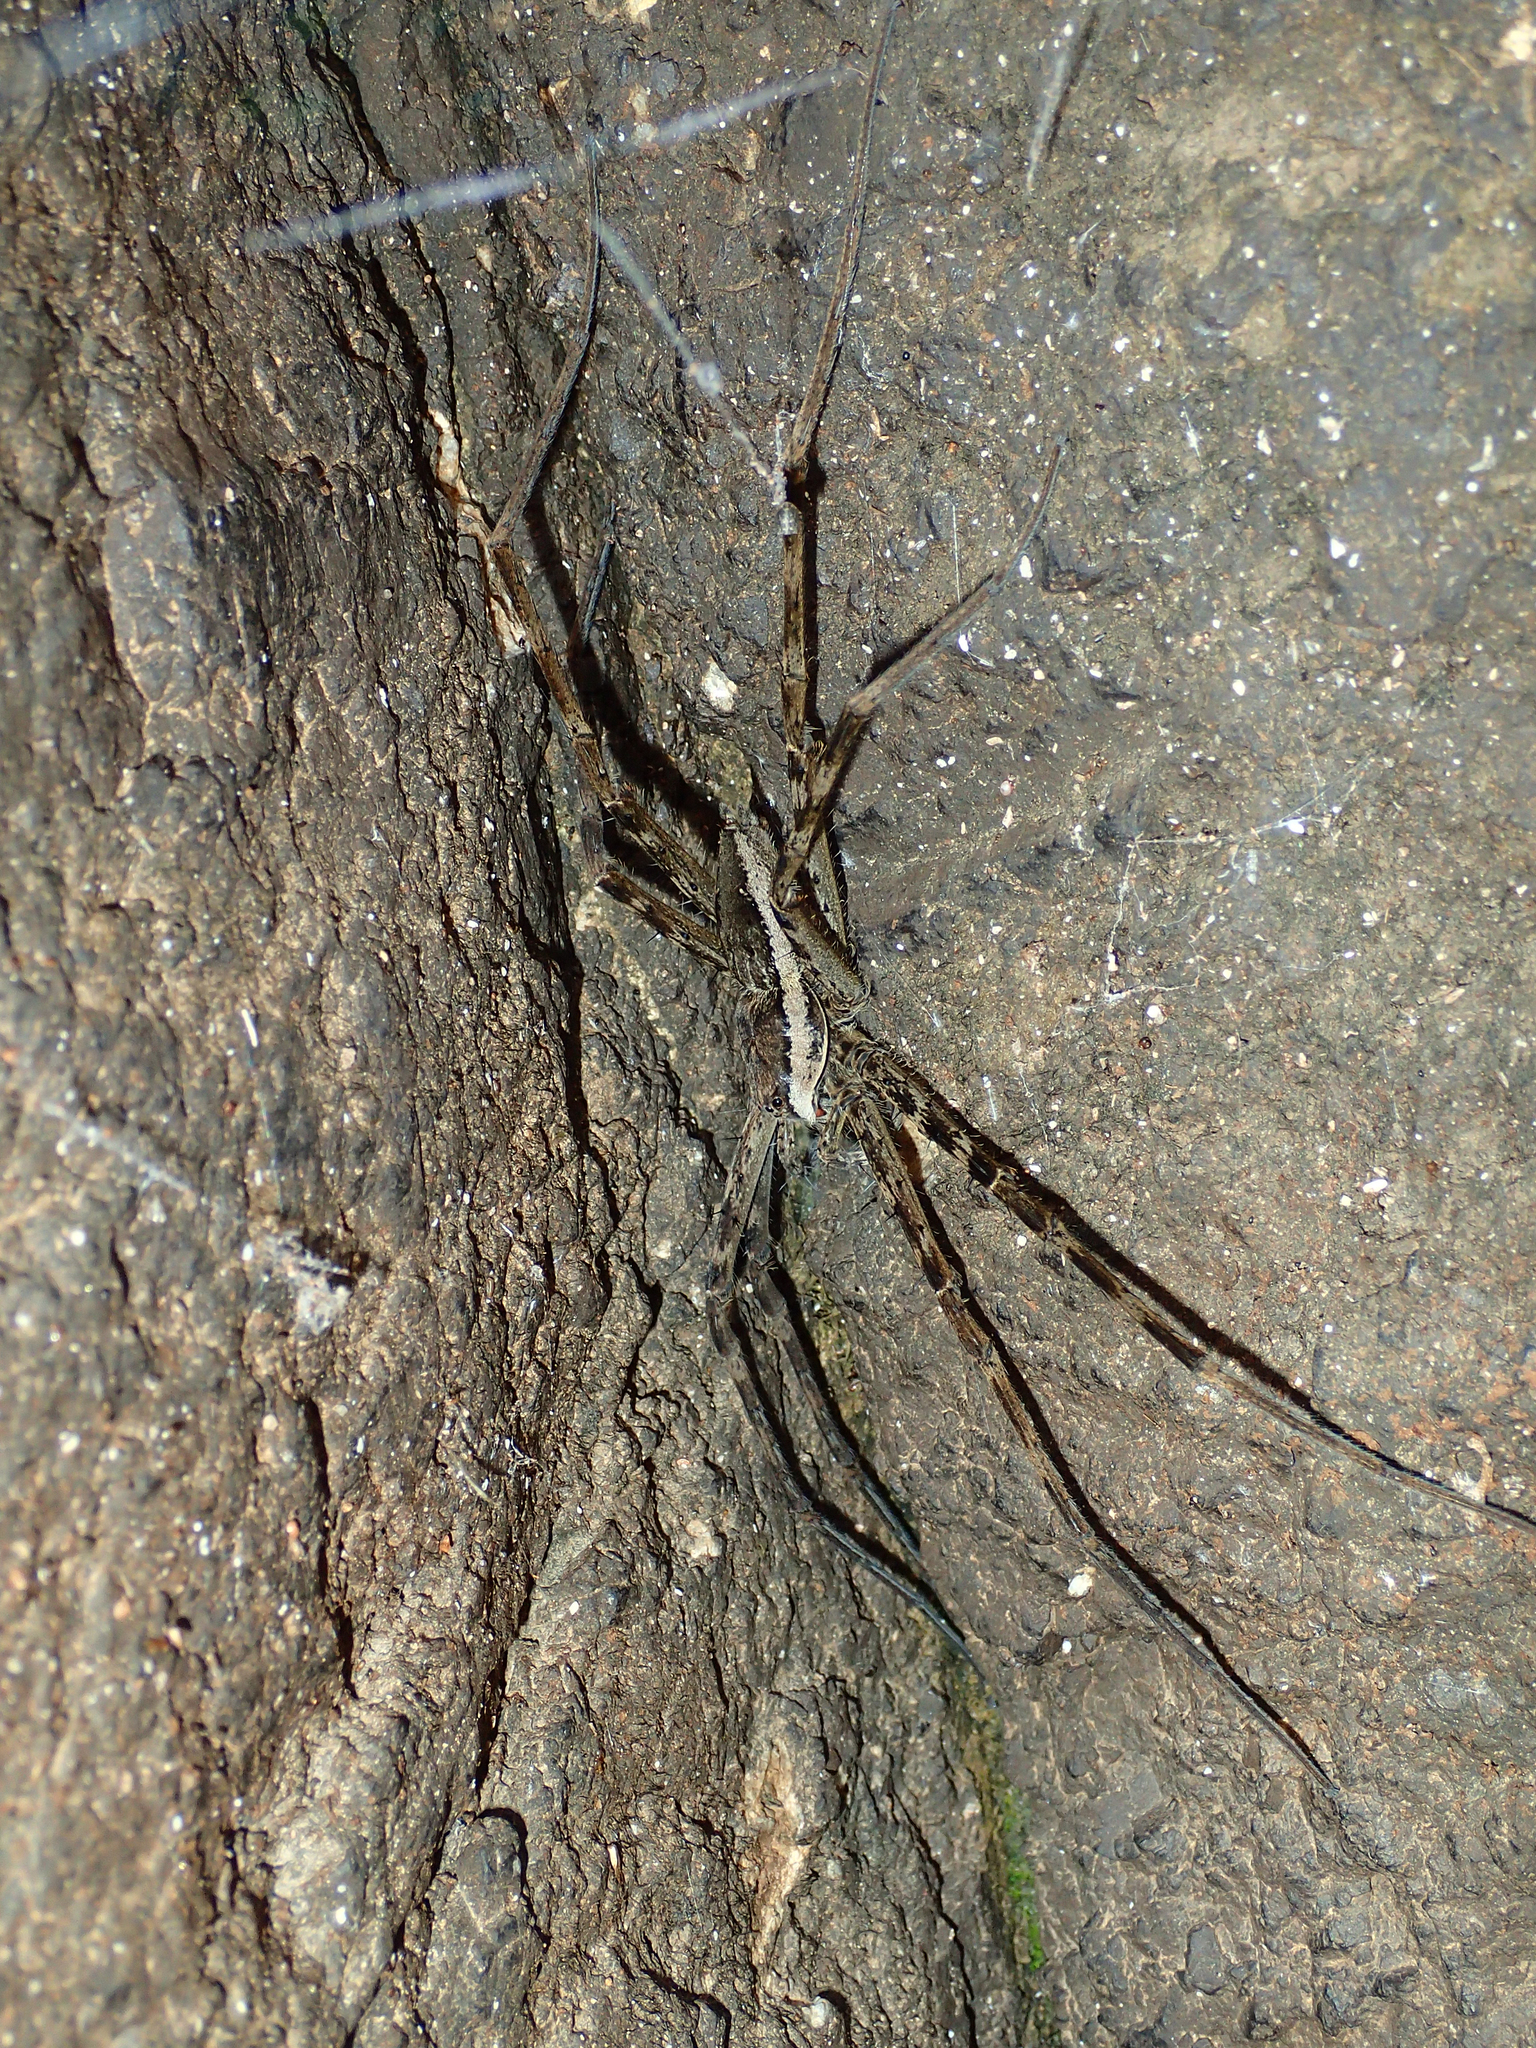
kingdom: Animalia
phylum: Arthropoda
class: Arachnida
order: Araneae
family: Pisauridae
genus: Megadolomedes
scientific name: Megadolomedes trux
